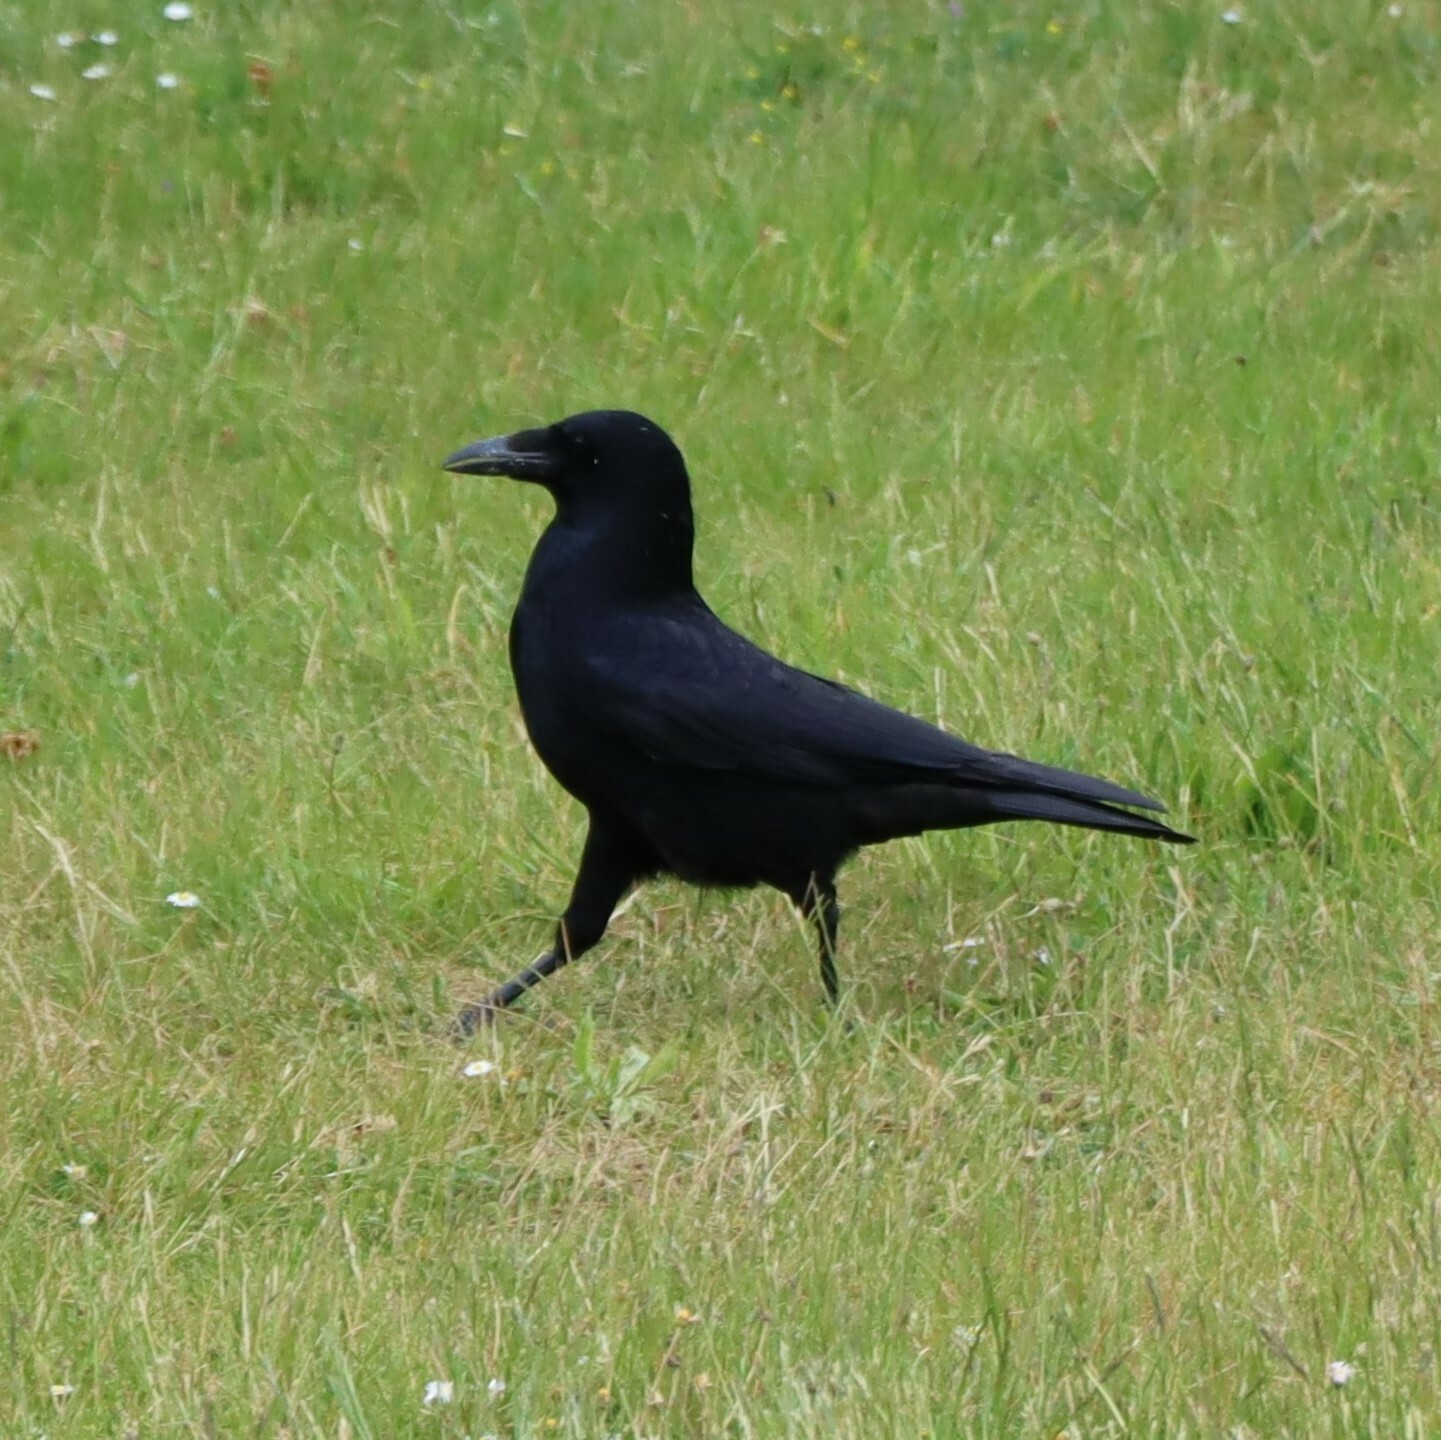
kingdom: Animalia
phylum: Chordata
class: Aves
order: Passeriformes
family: Corvidae
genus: Corvus
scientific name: Corvus corone
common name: Carrion crow
